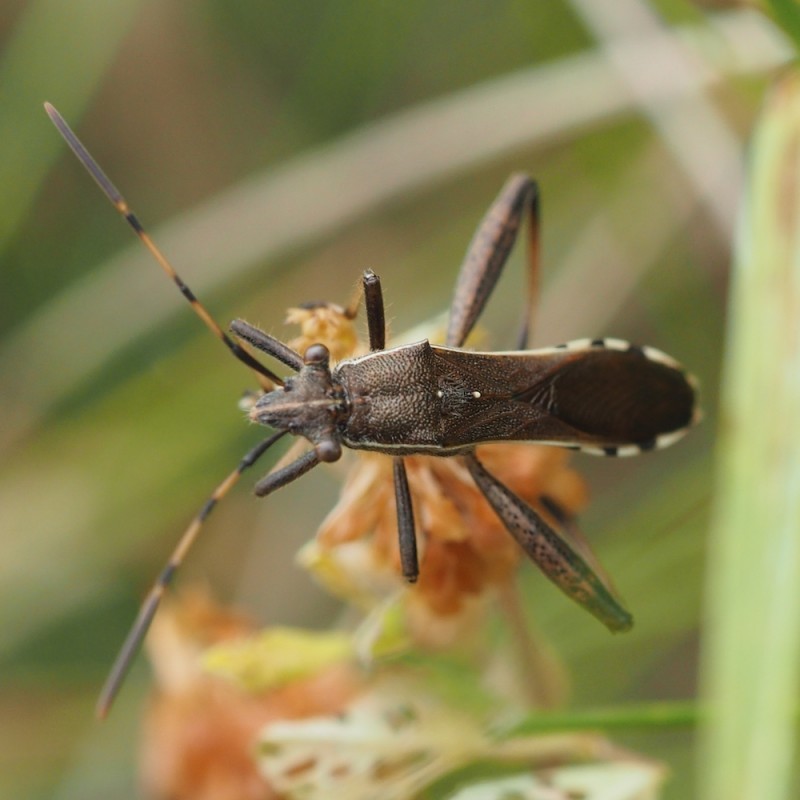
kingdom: Animalia
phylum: Arthropoda
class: Insecta
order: Hemiptera
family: Alydidae
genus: Camptopus
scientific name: Camptopus lateralis
